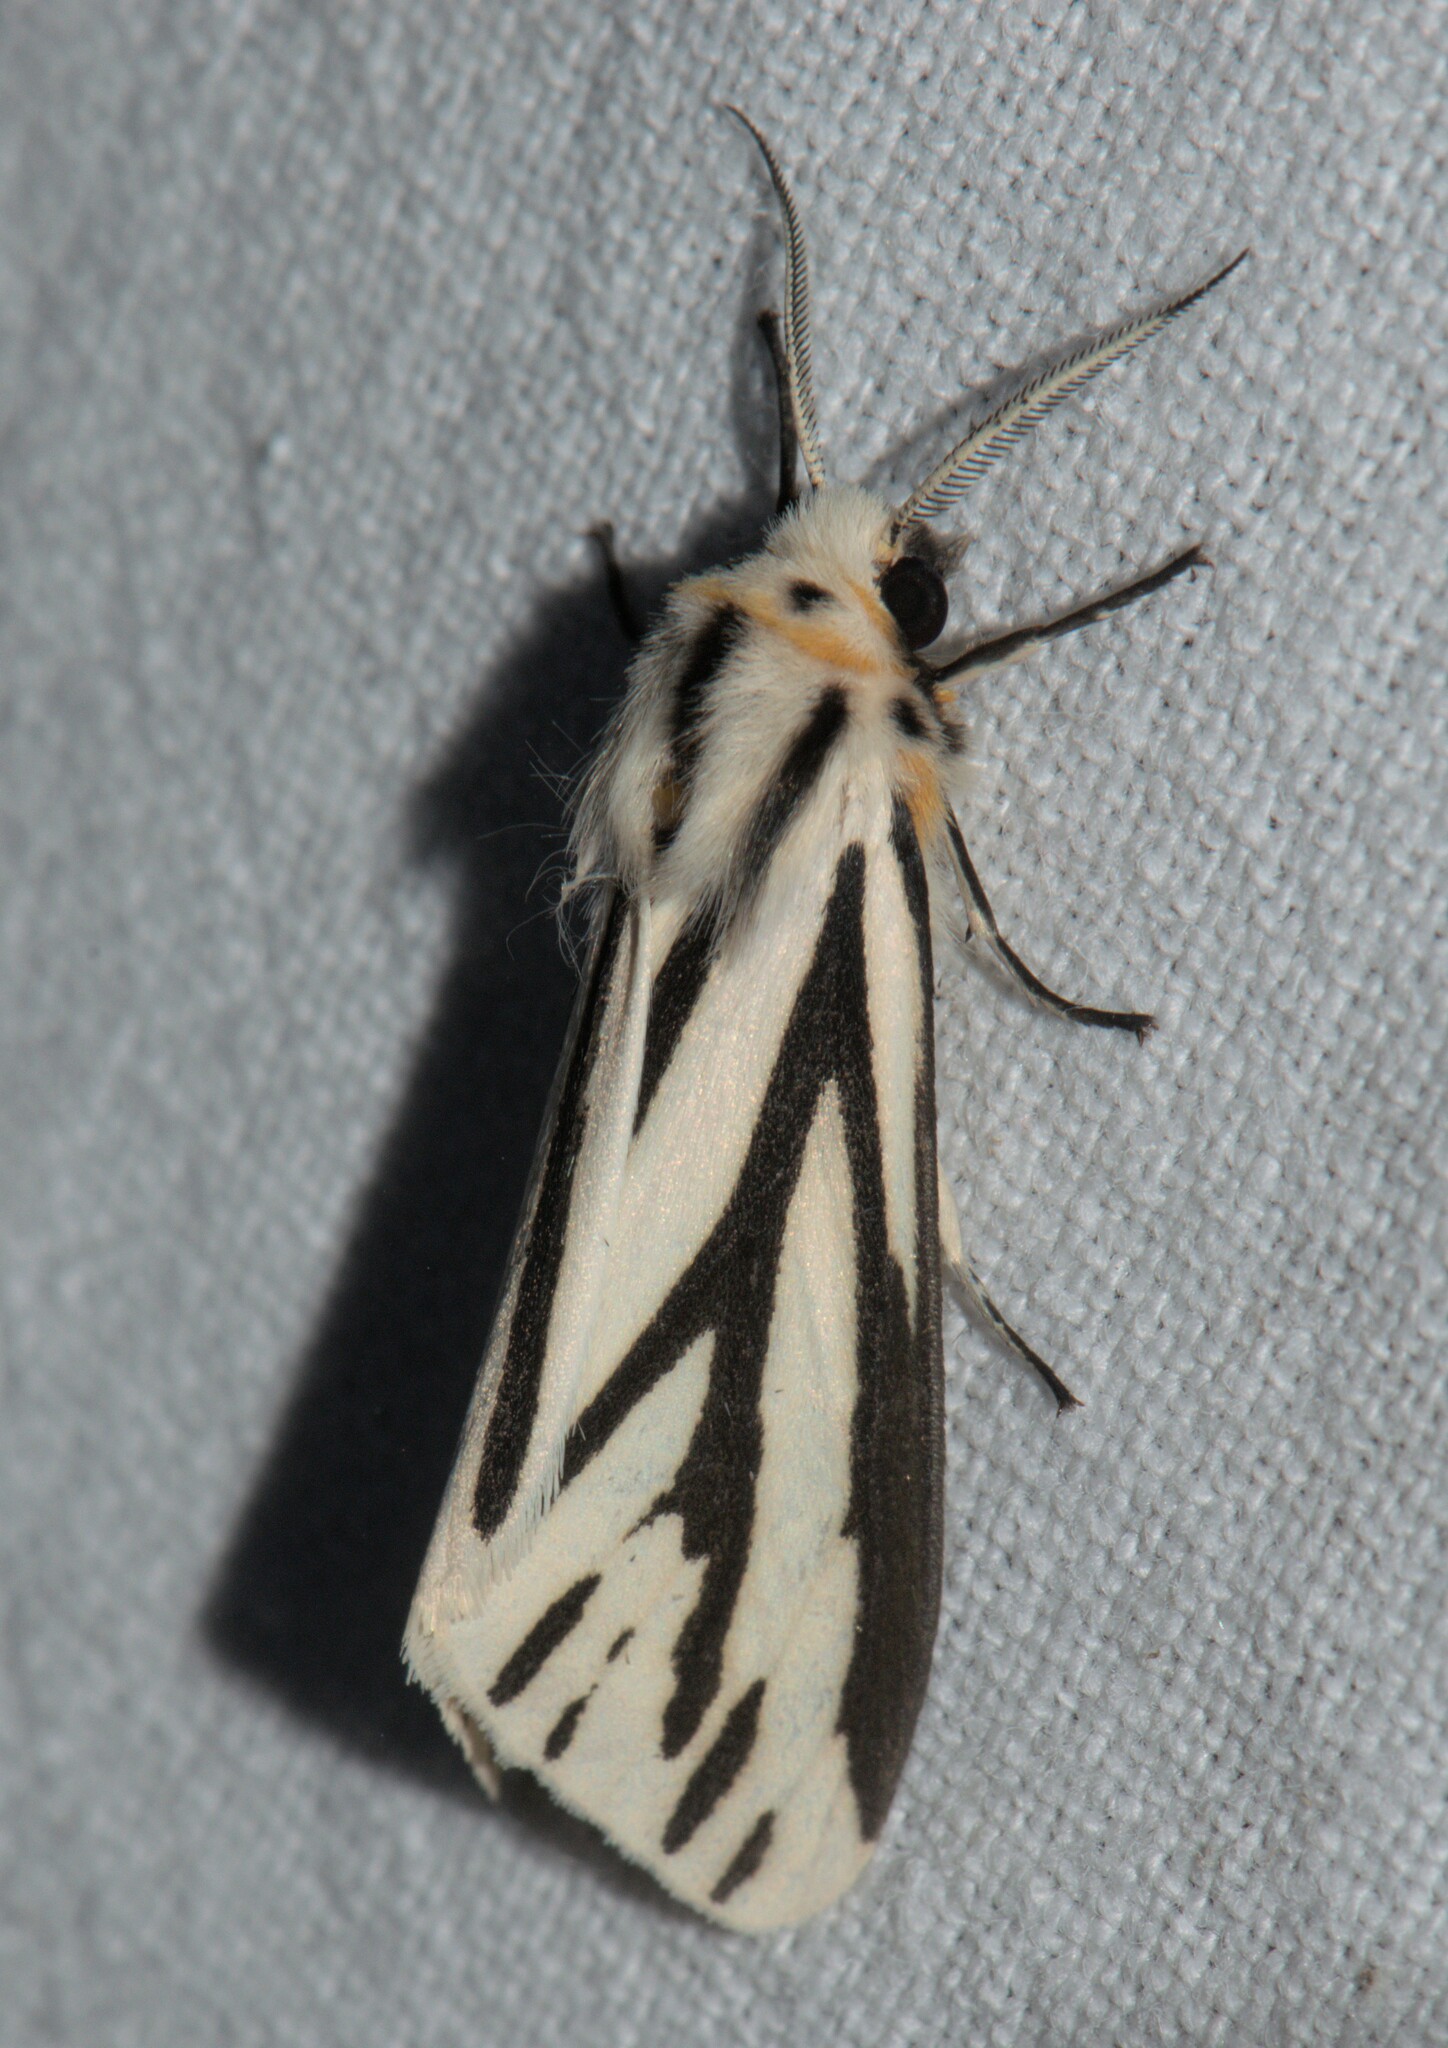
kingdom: Animalia
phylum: Arthropoda
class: Insecta
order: Lepidoptera
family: Erebidae
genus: Cladarctia
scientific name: Cladarctia quadriramosa
